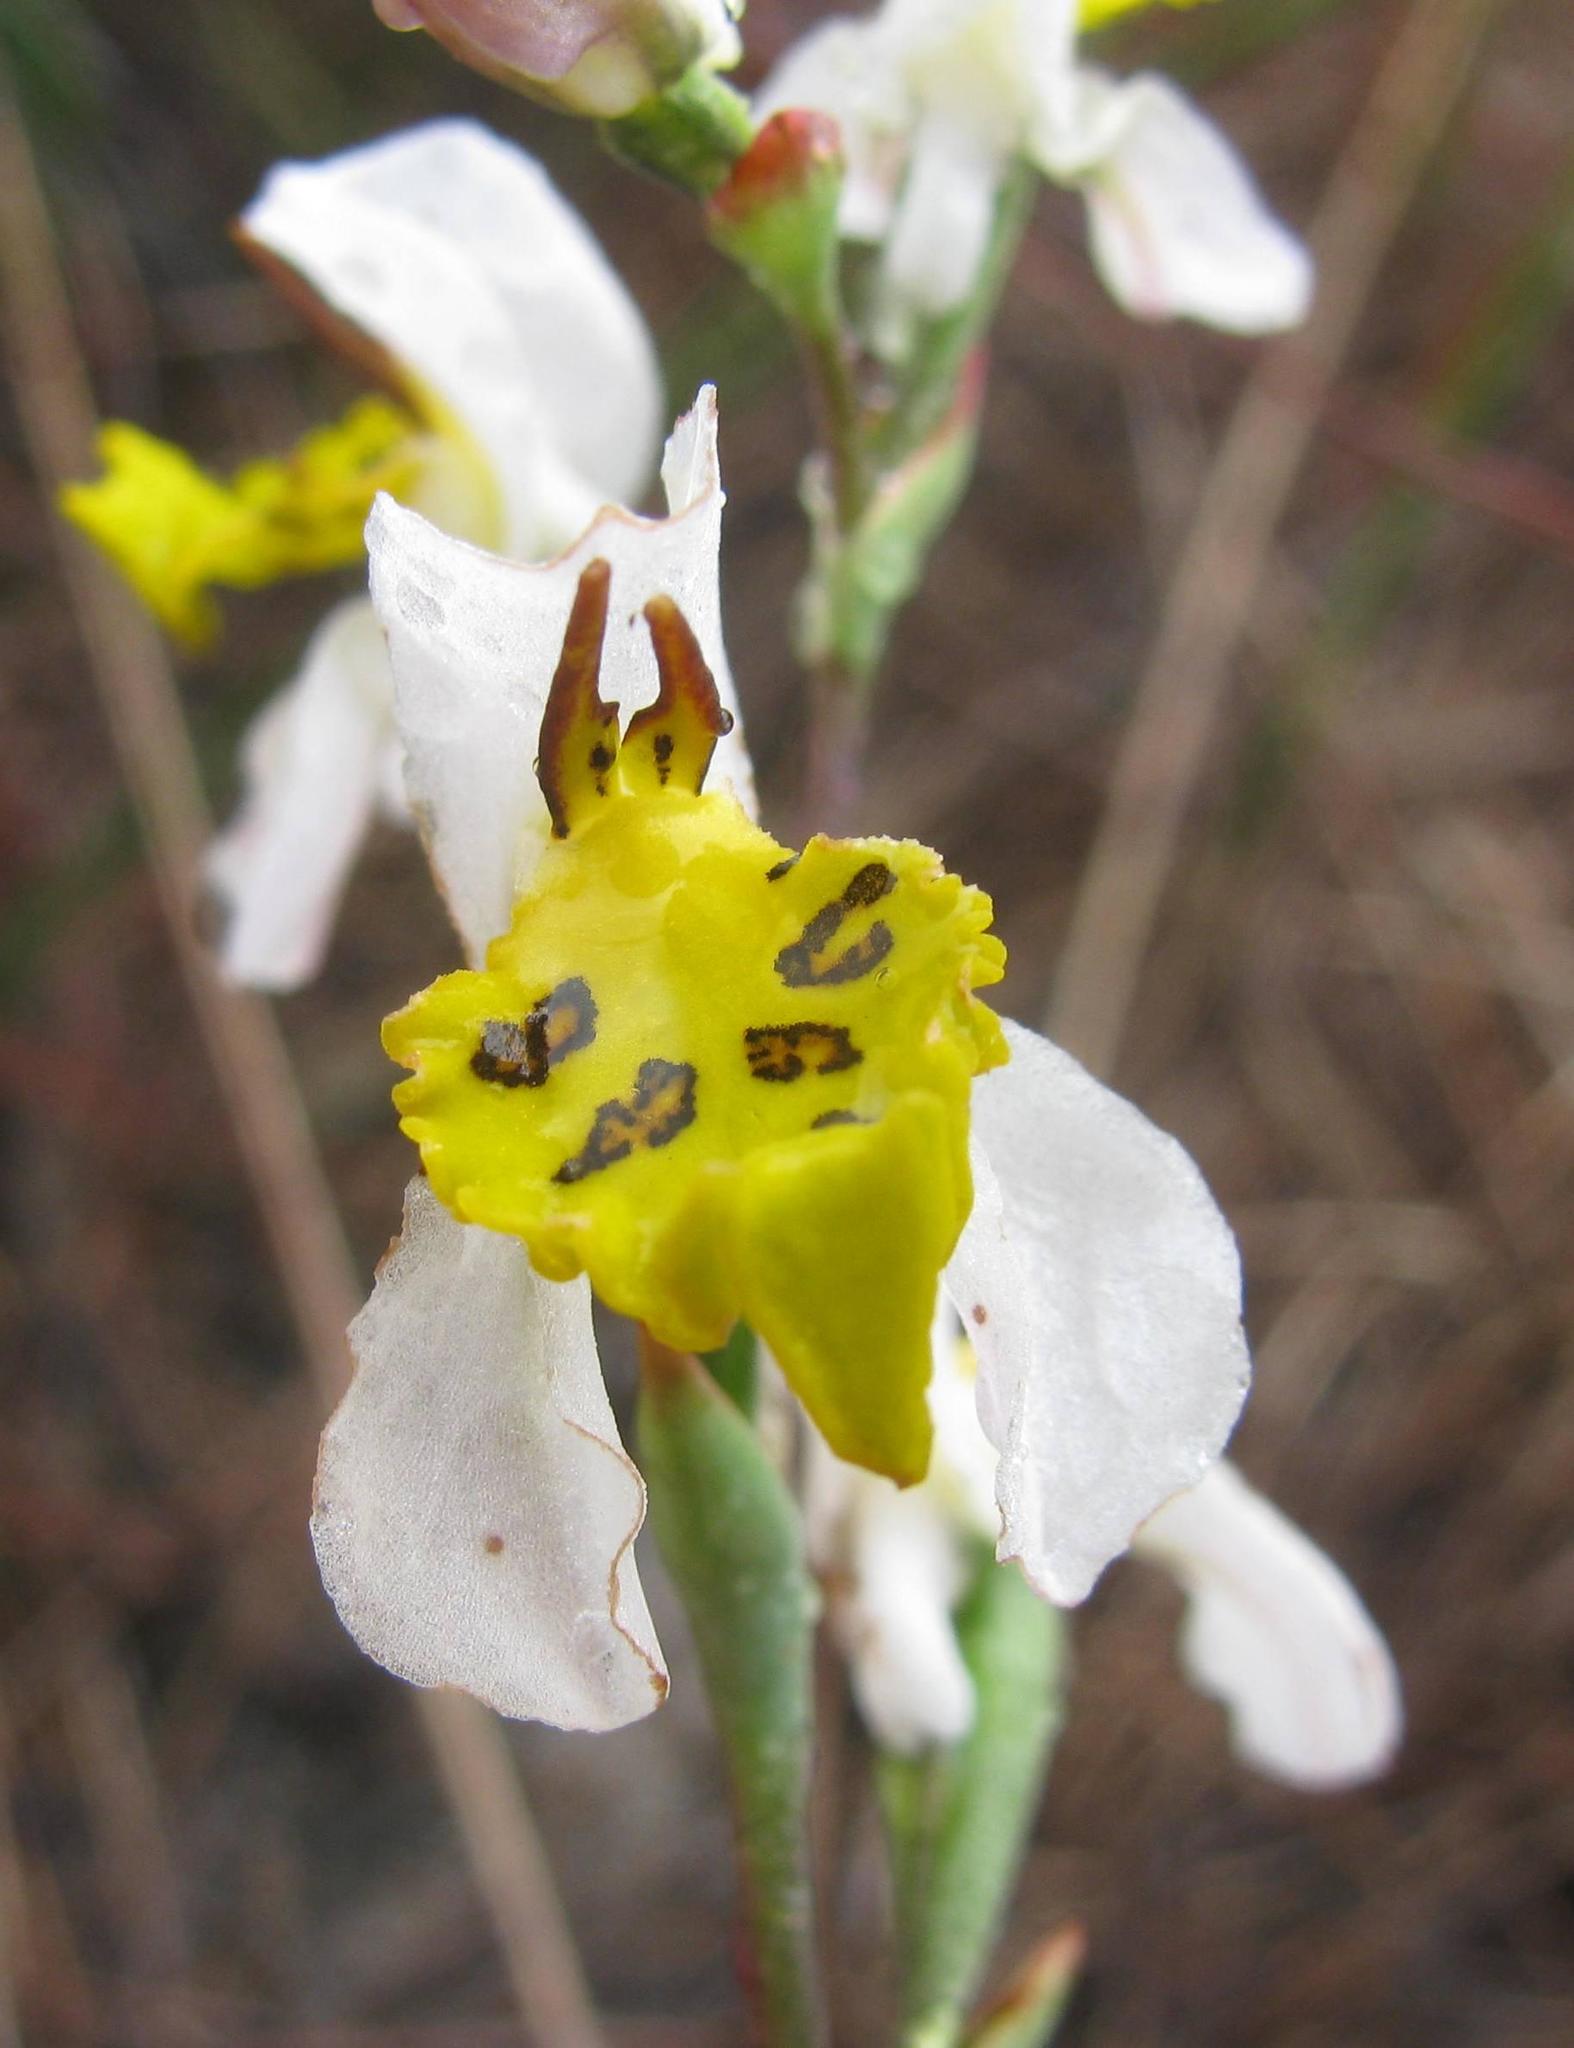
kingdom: Plantae
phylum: Tracheophyta
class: Liliopsida
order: Asparagales
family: Orchidaceae
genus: Disa
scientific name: Disa flexuosa
